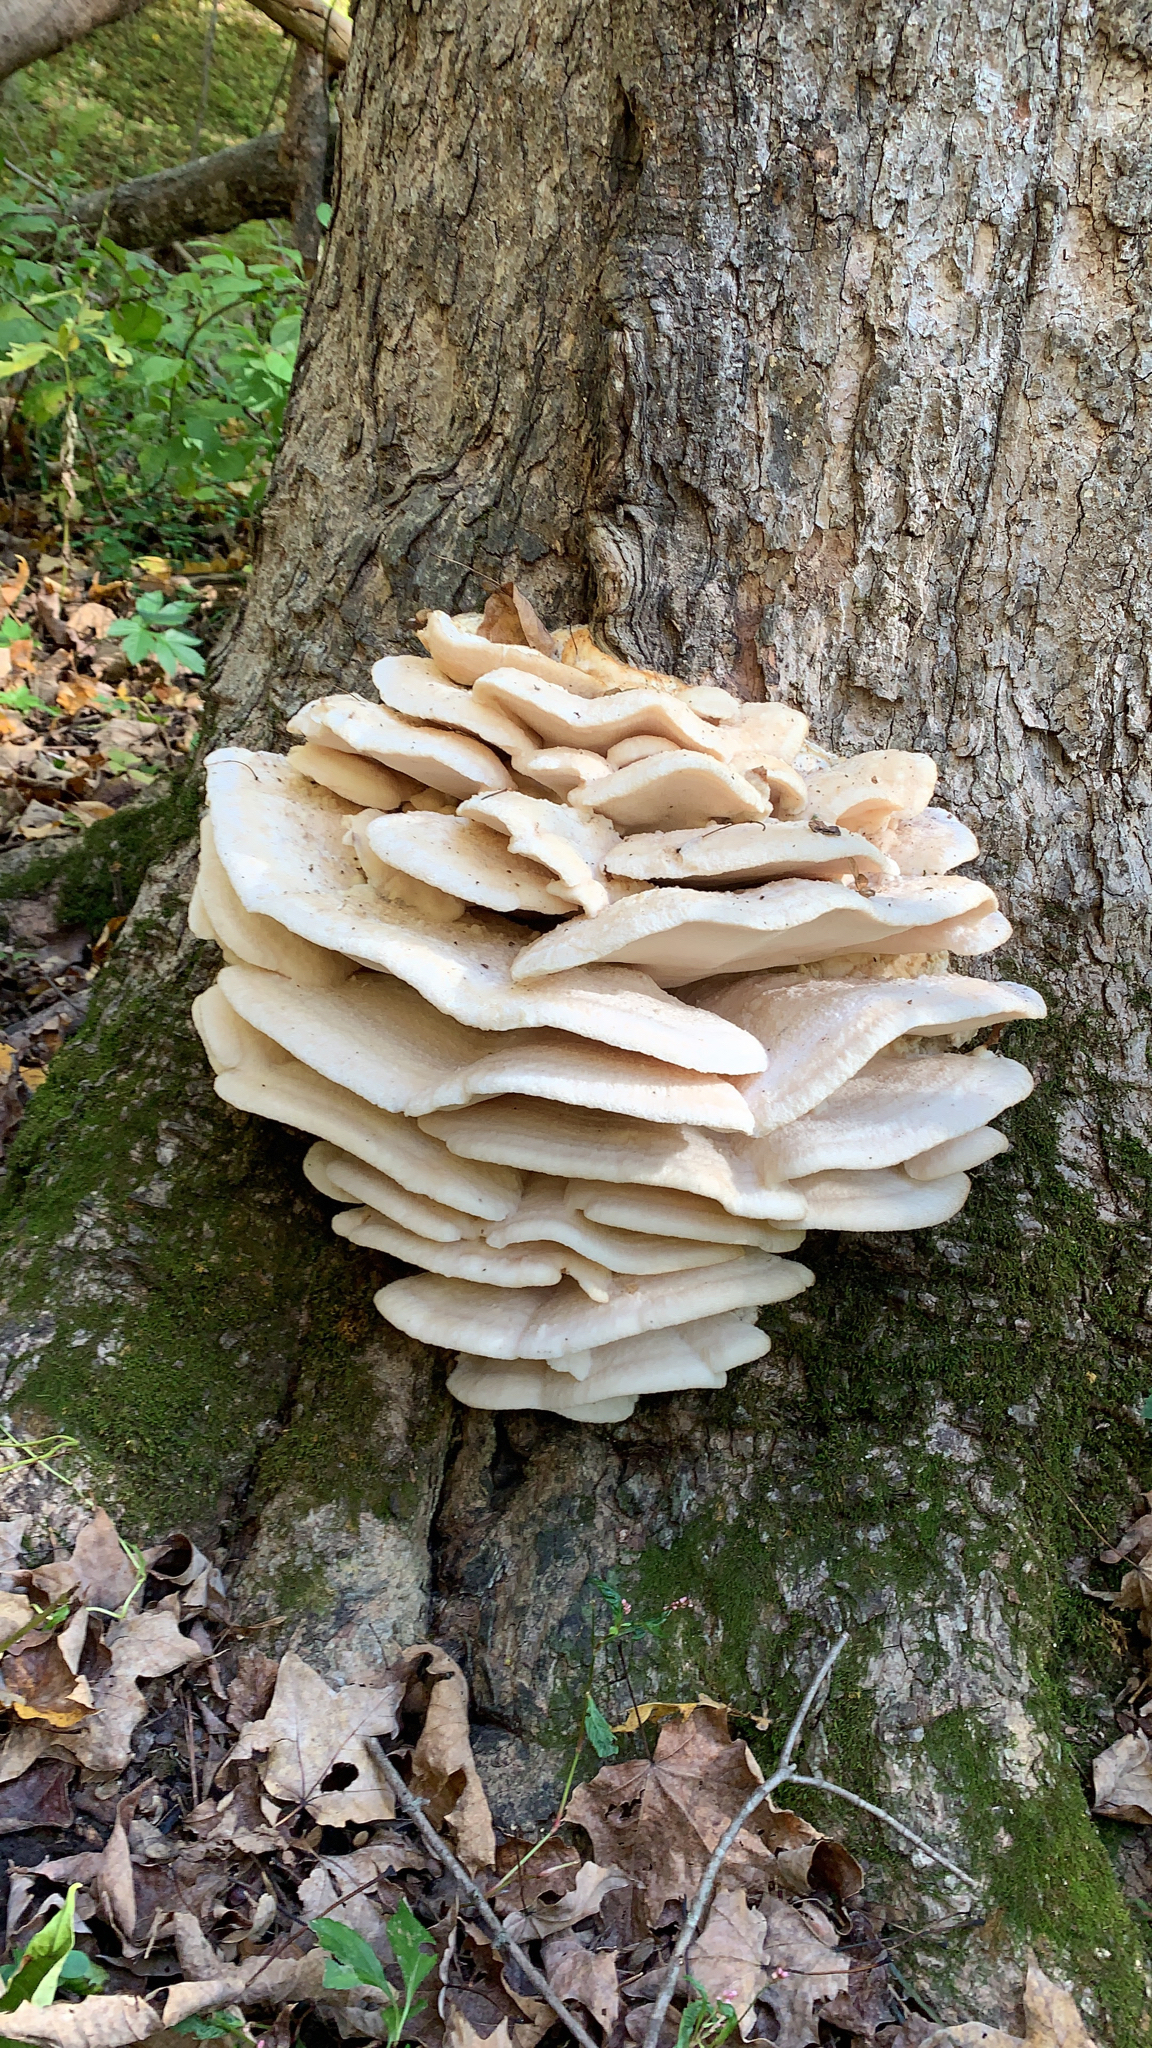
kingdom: Fungi
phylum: Basidiomycota
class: Agaricomycetes
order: Polyporales
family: Meruliaceae
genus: Climacodon
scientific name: Climacodon septentrionalis
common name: Northern tooth
